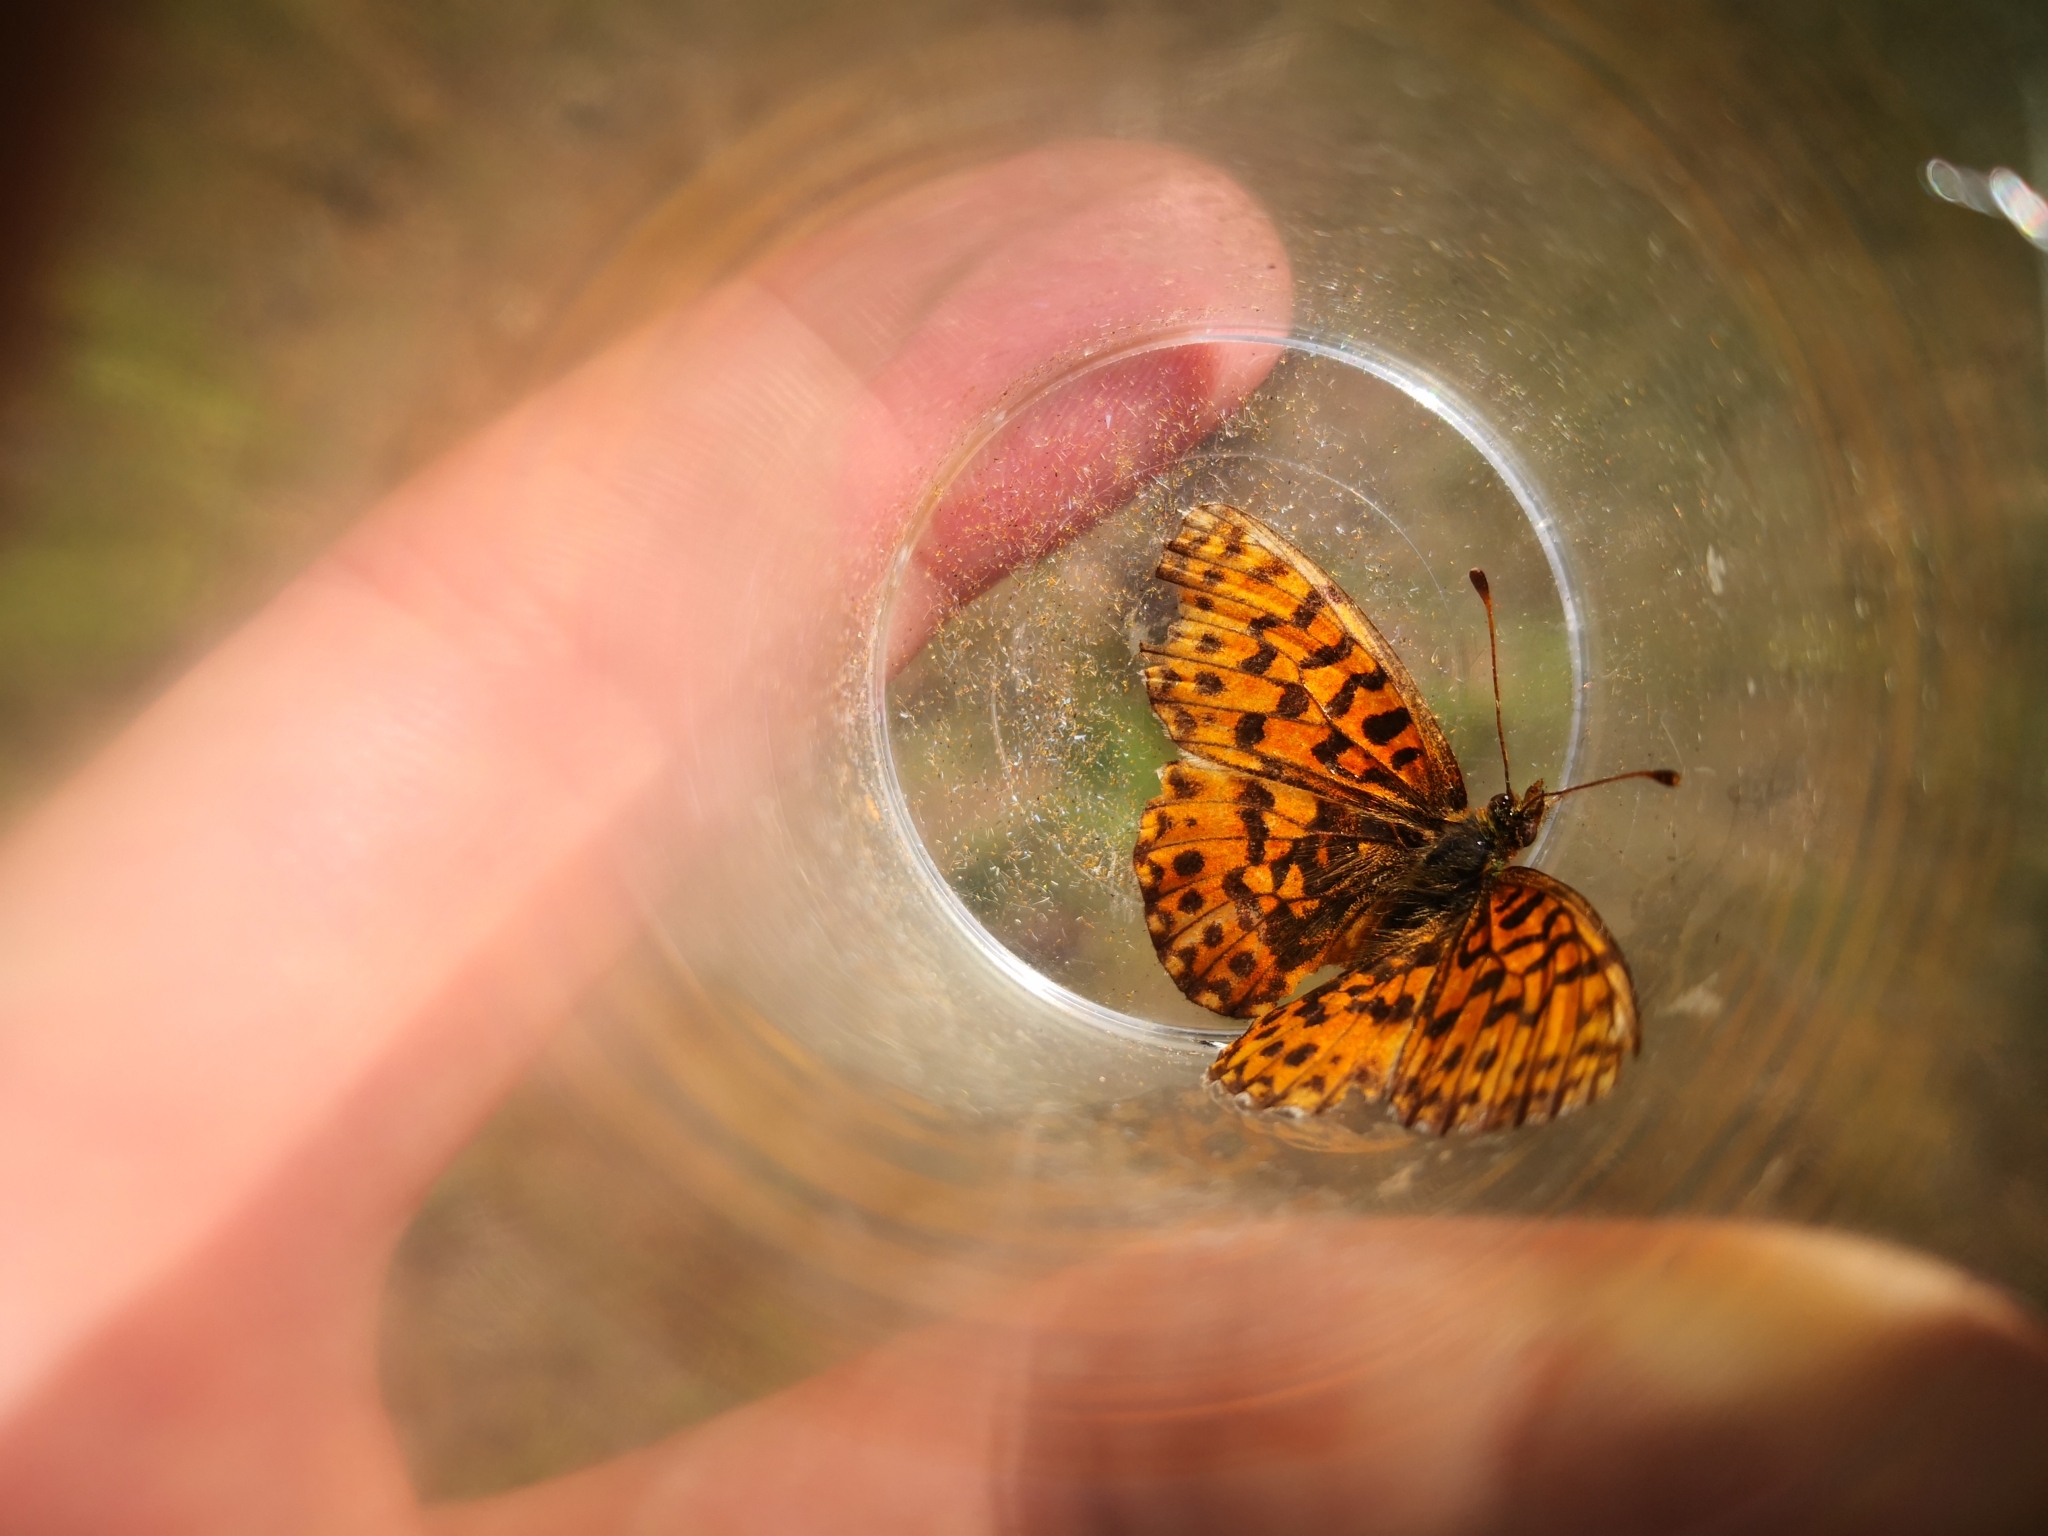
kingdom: Animalia
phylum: Arthropoda
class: Insecta
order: Lepidoptera
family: Nymphalidae
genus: Boloria
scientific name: Boloria dia
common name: Weaver's fritillary
